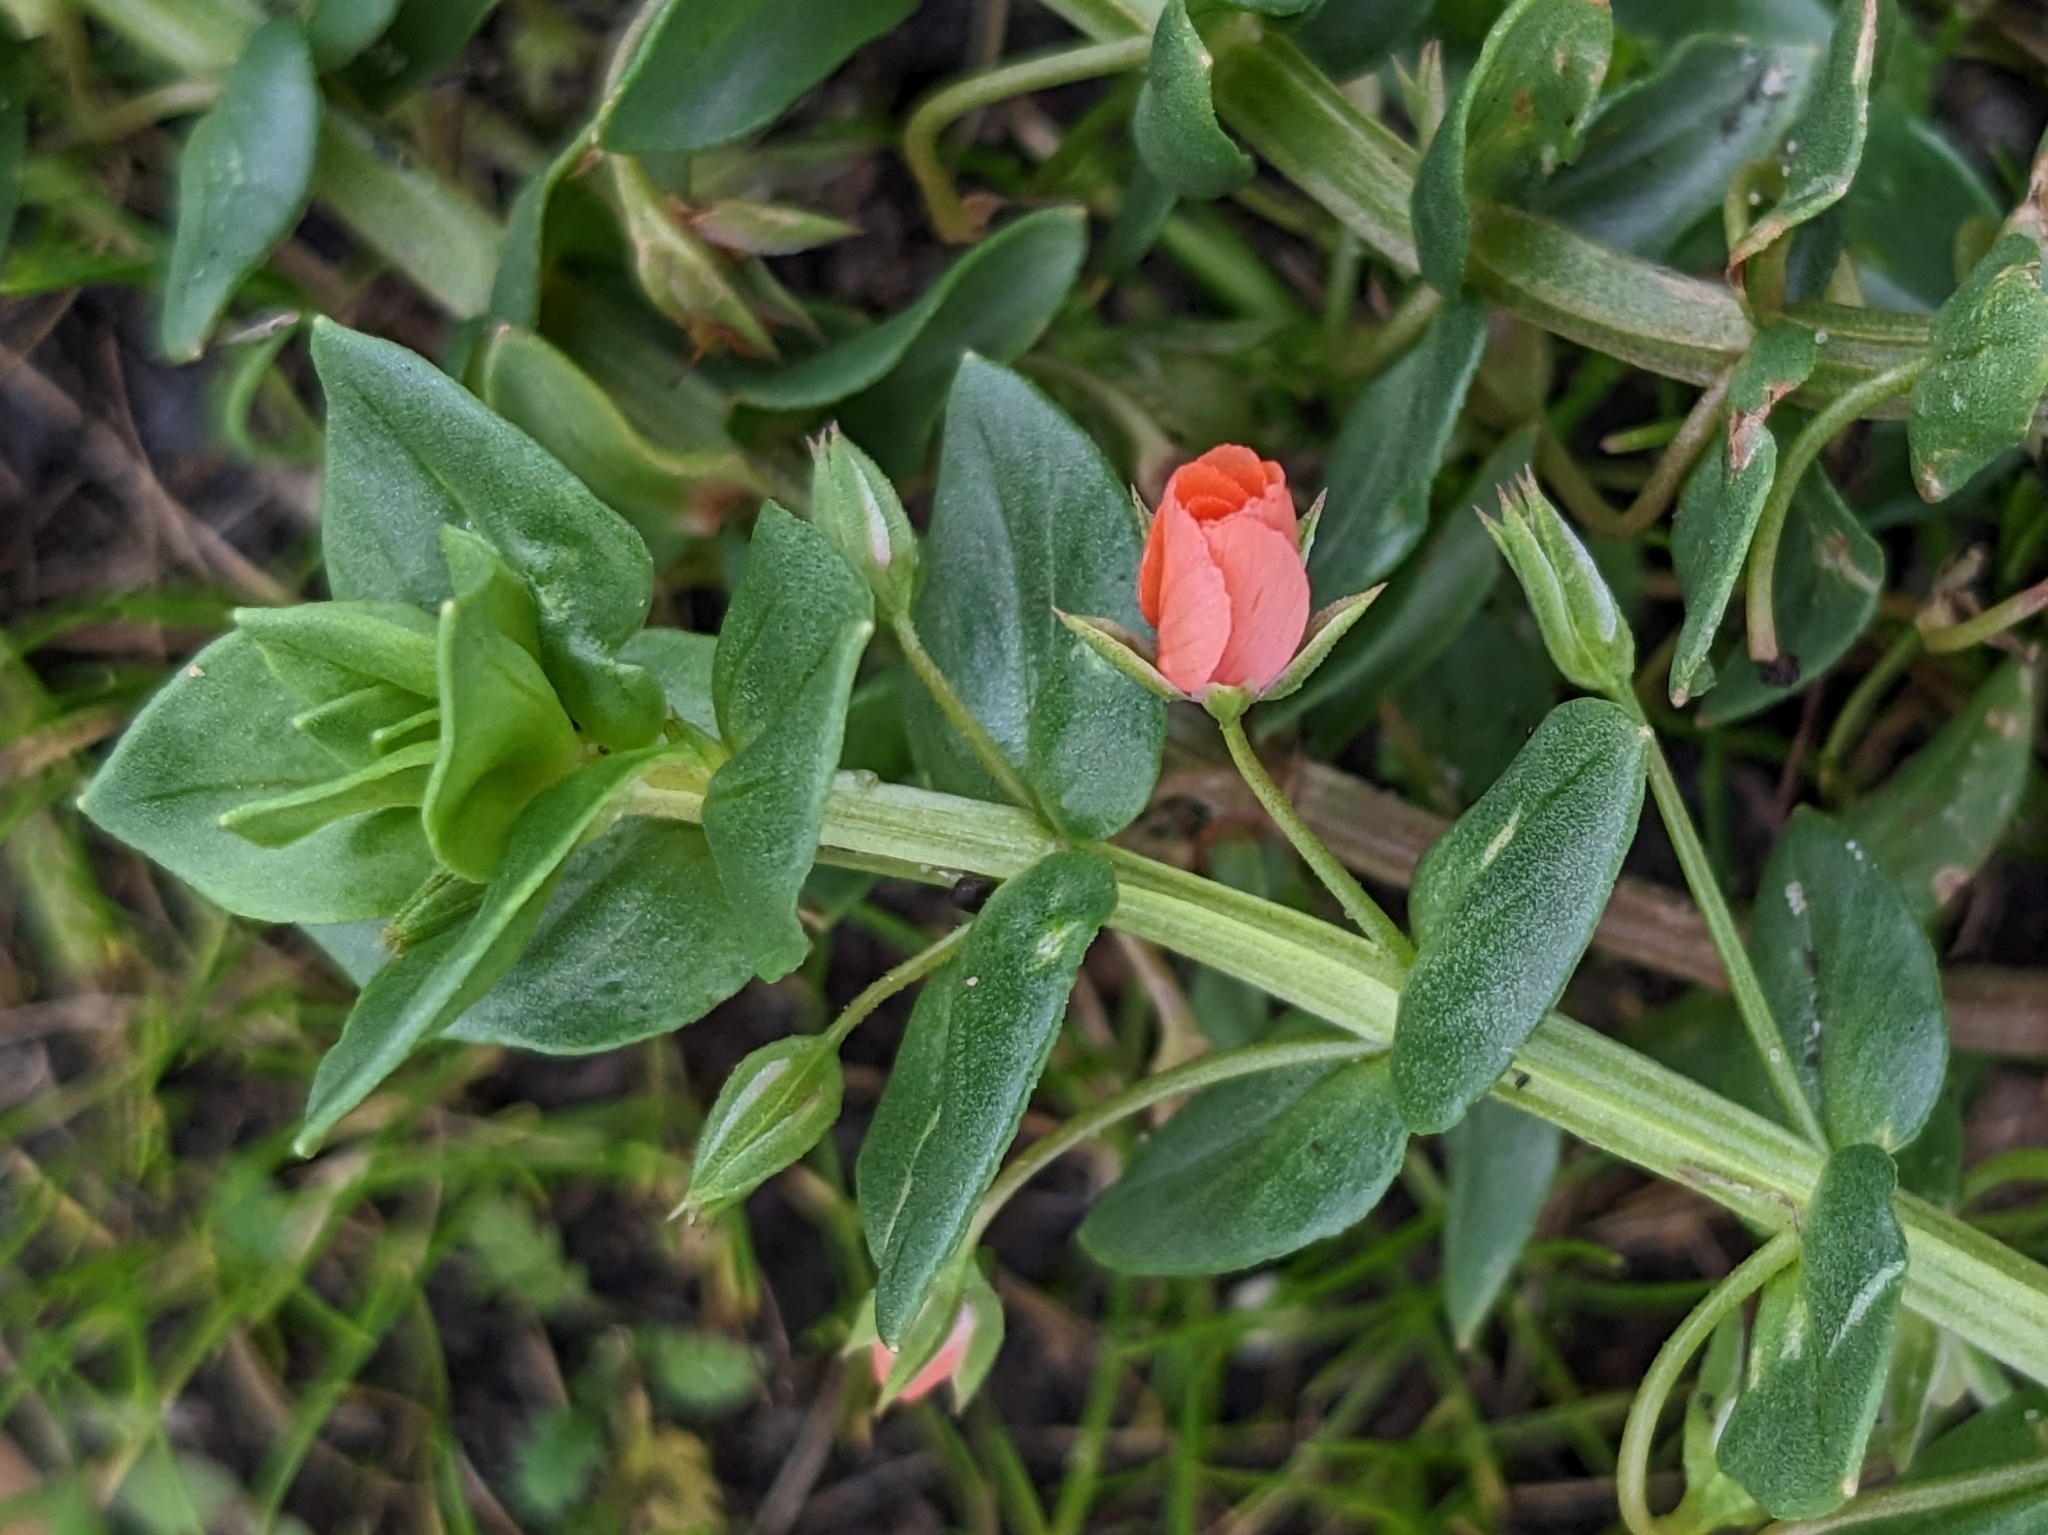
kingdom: Plantae
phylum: Tracheophyta
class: Magnoliopsida
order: Ericales
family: Primulaceae
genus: Lysimachia
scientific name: Lysimachia arvensis
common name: Scarlet pimpernel
